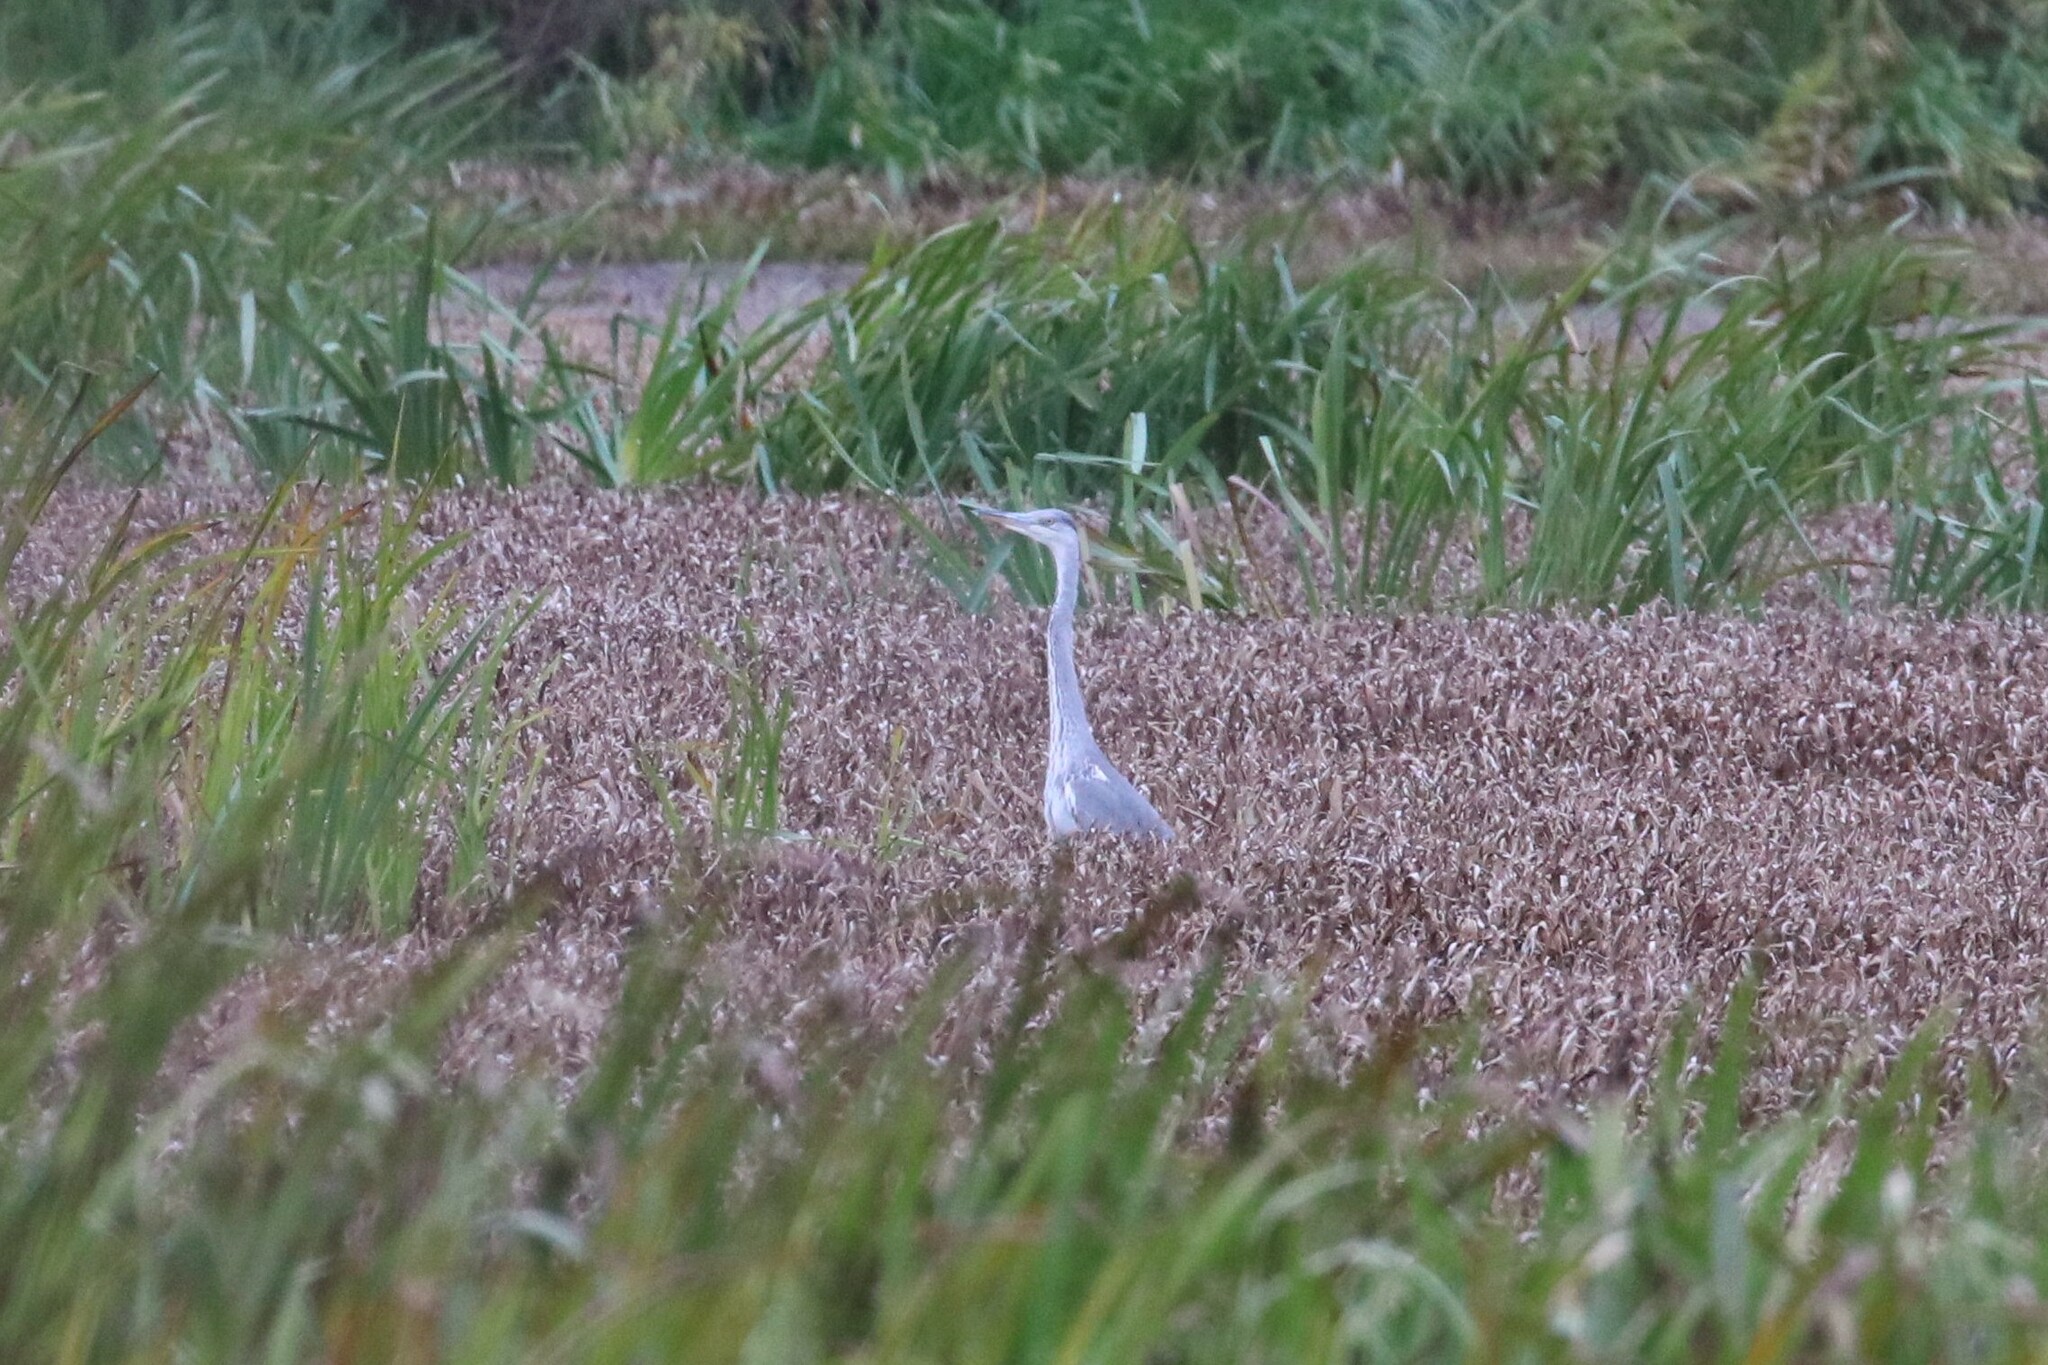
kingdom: Animalia
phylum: Chordata
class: Aves
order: Pelecaniformes
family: Ardeidae
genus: Ardea
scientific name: Ardea cinerea
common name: Grey heron
